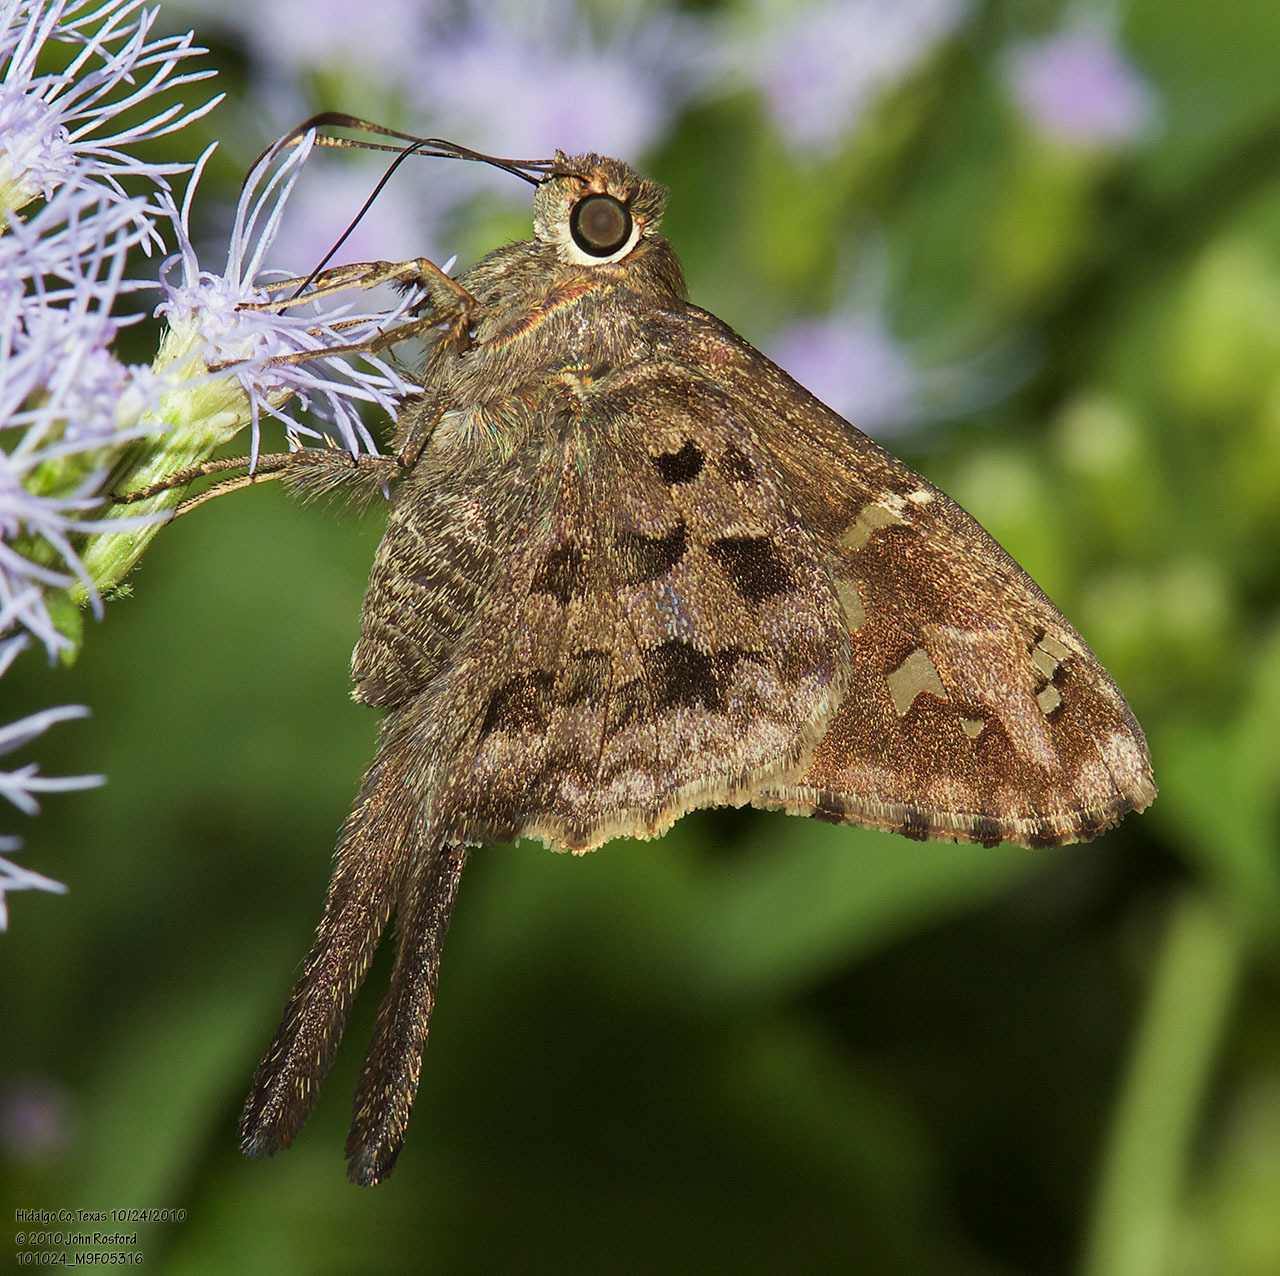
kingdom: Animalia
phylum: Arthropoda
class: Insecta
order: Lepidoptera
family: Hesperiidae
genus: Thorybes
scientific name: Thorybes
